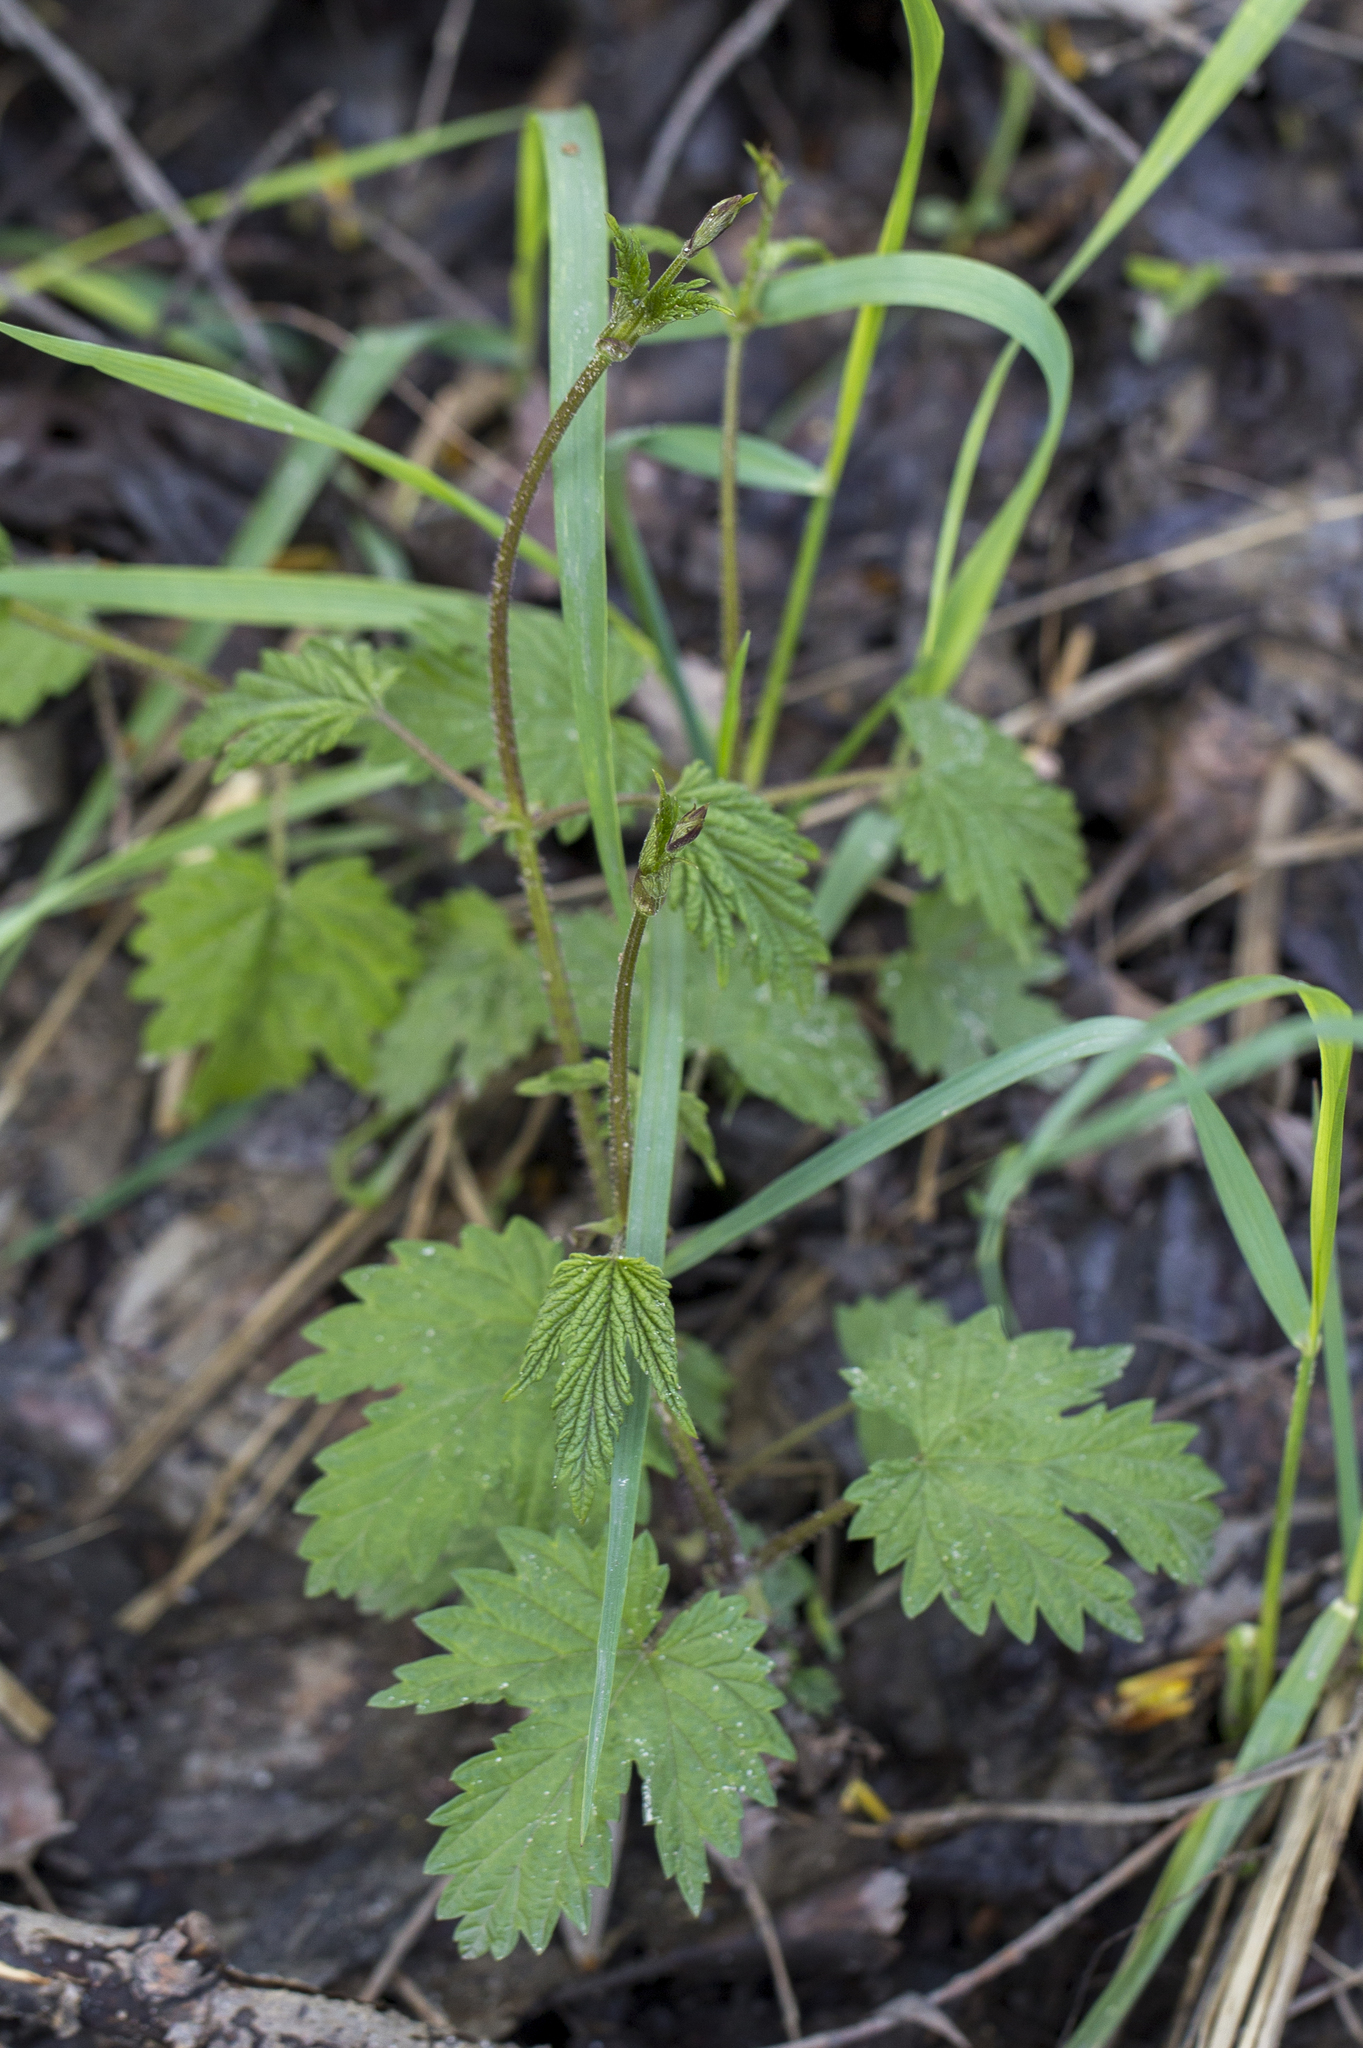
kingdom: Plantae
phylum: Tracheophyta
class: Magnoliopsida
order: Rosales
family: Cannabaceae
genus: Humulus
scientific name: Humulus lupulus
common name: Hop
